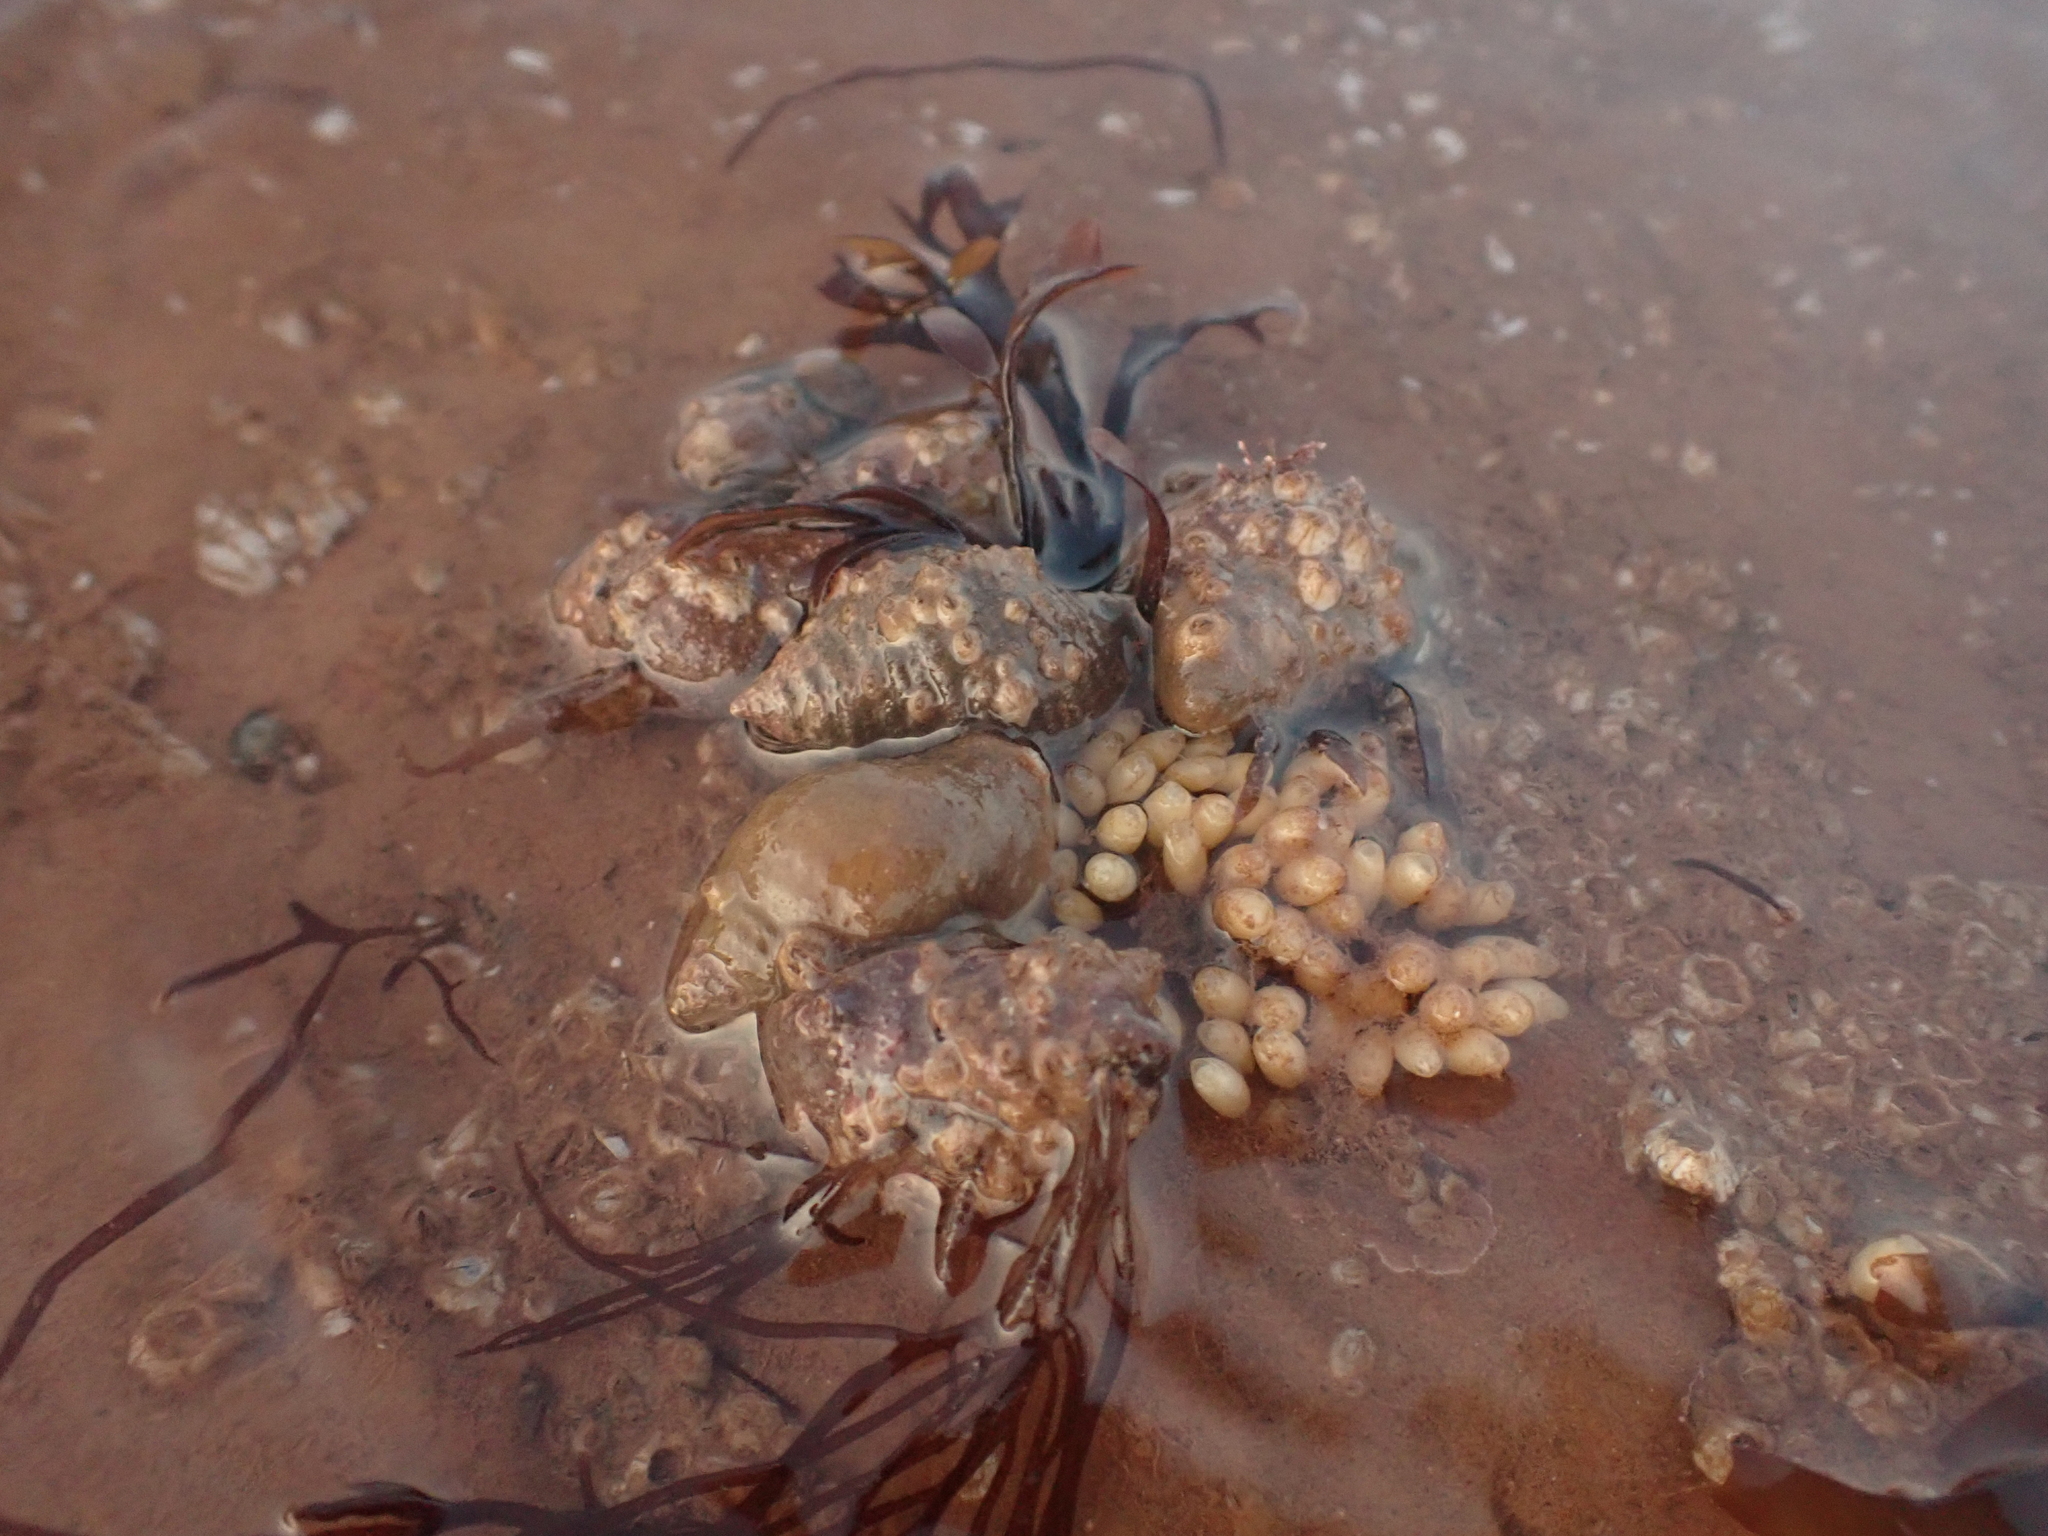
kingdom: Animalia
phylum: Mollusca
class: Gastropoda
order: Neogastropoda
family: Muricidae
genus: Nucella
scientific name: Nucella lapillus
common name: Dog whelk
